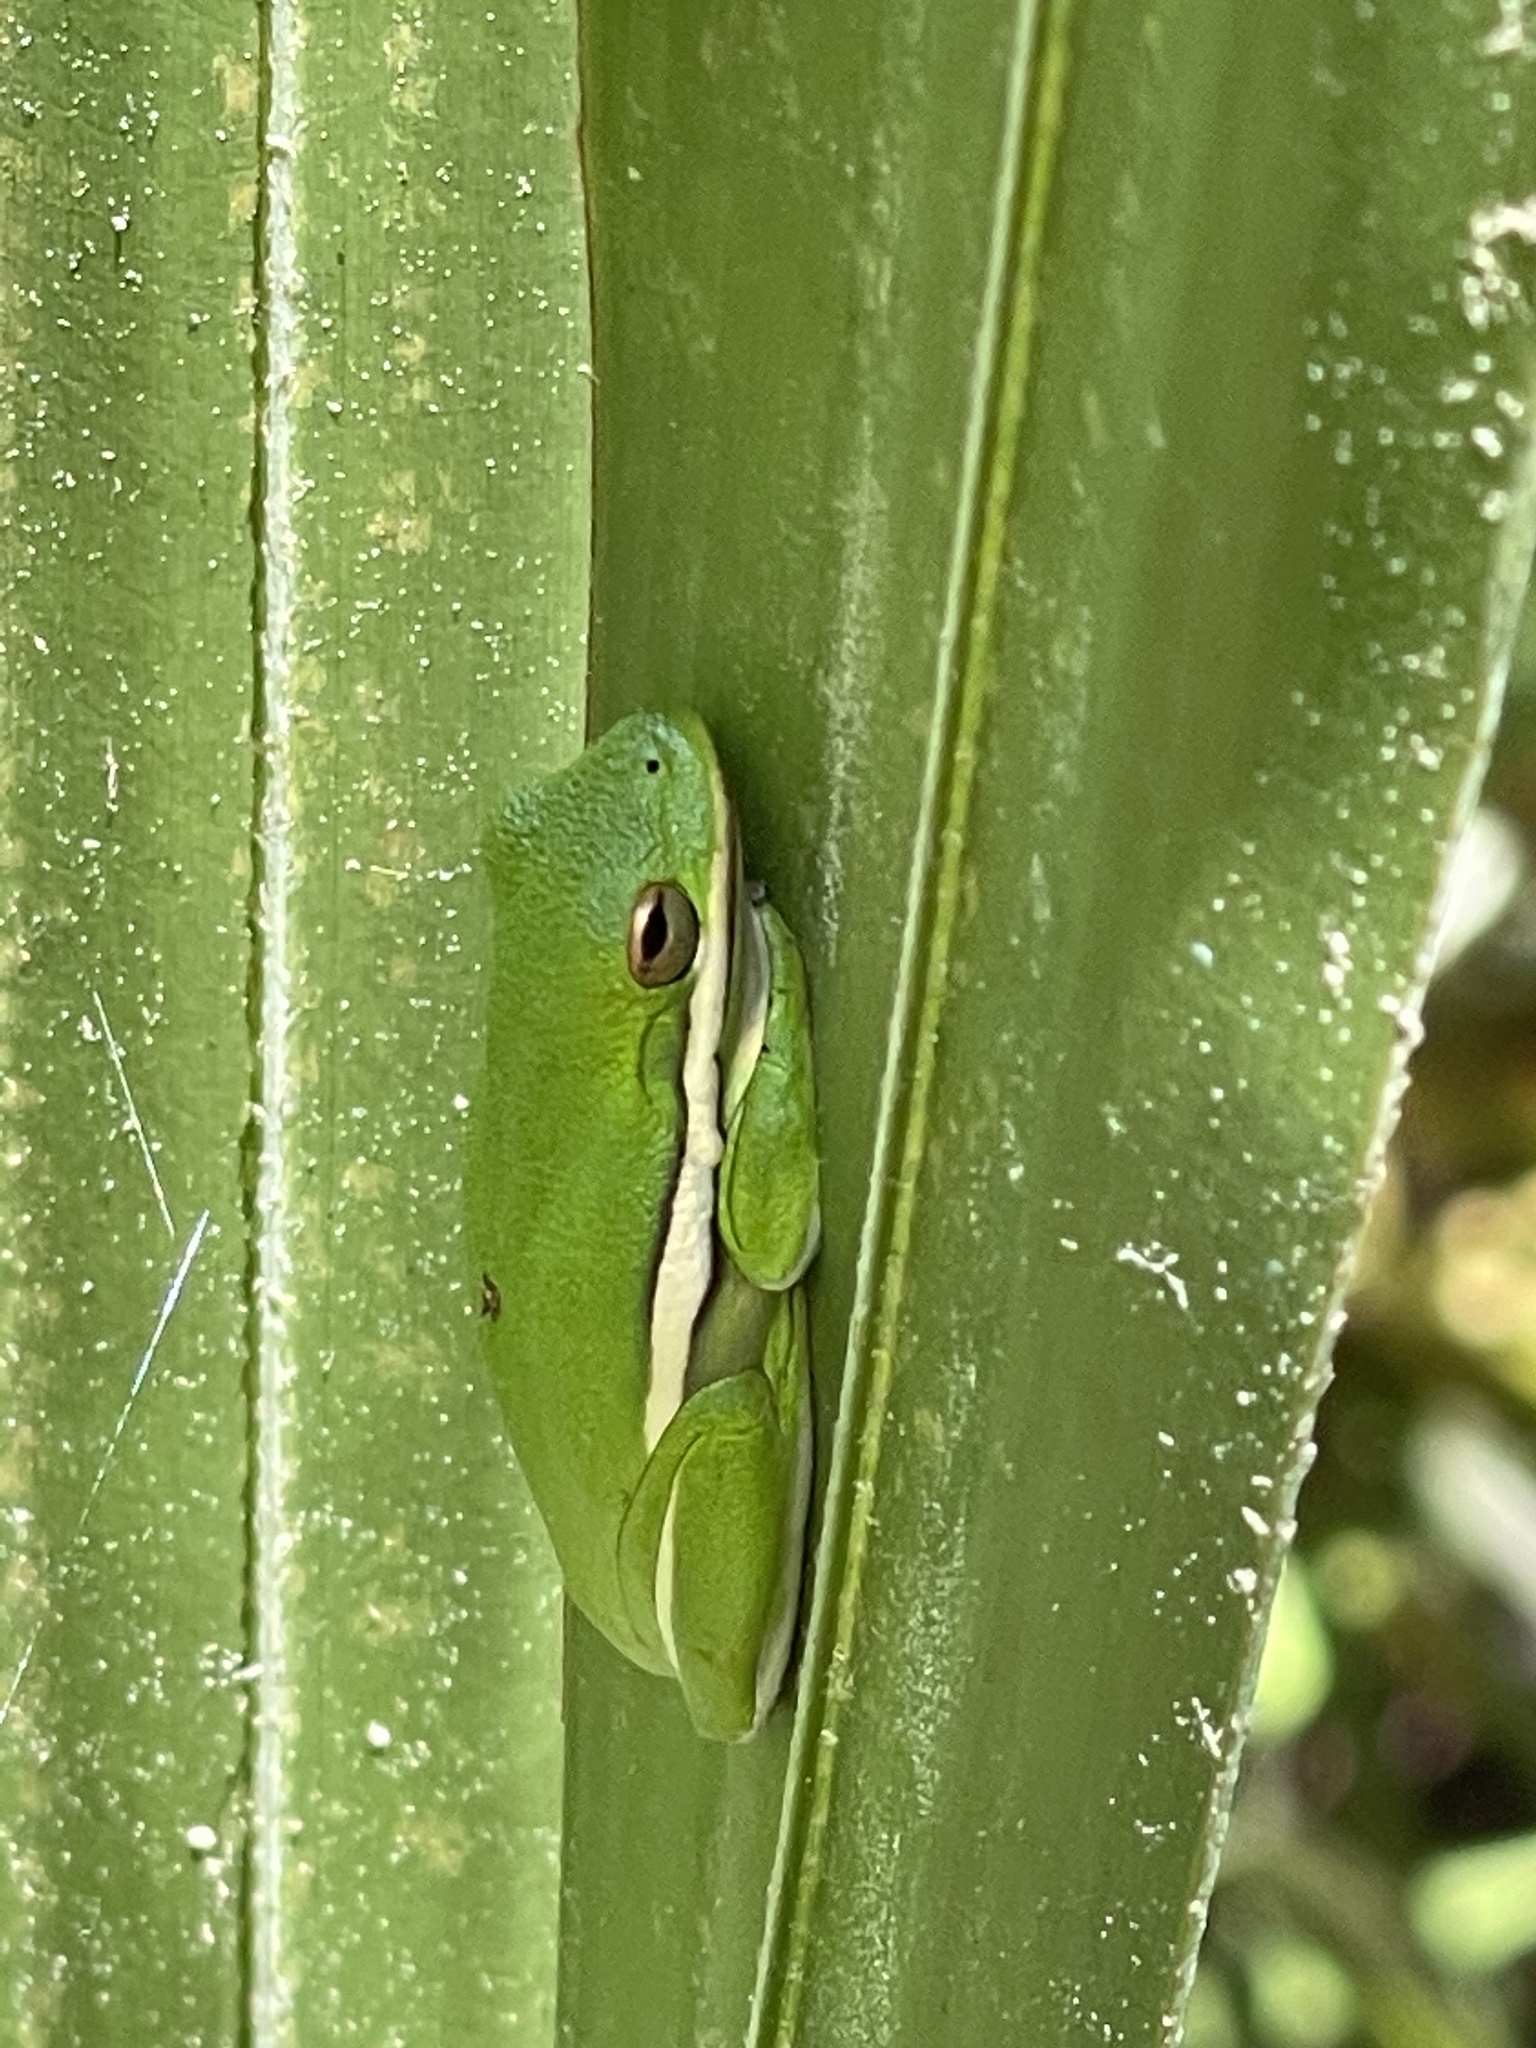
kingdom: Animalia
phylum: Chordata
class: Amphibia
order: Anura
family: Hylidae
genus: Dryophytes
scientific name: Dryophytes cinereus
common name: Green treefrog
